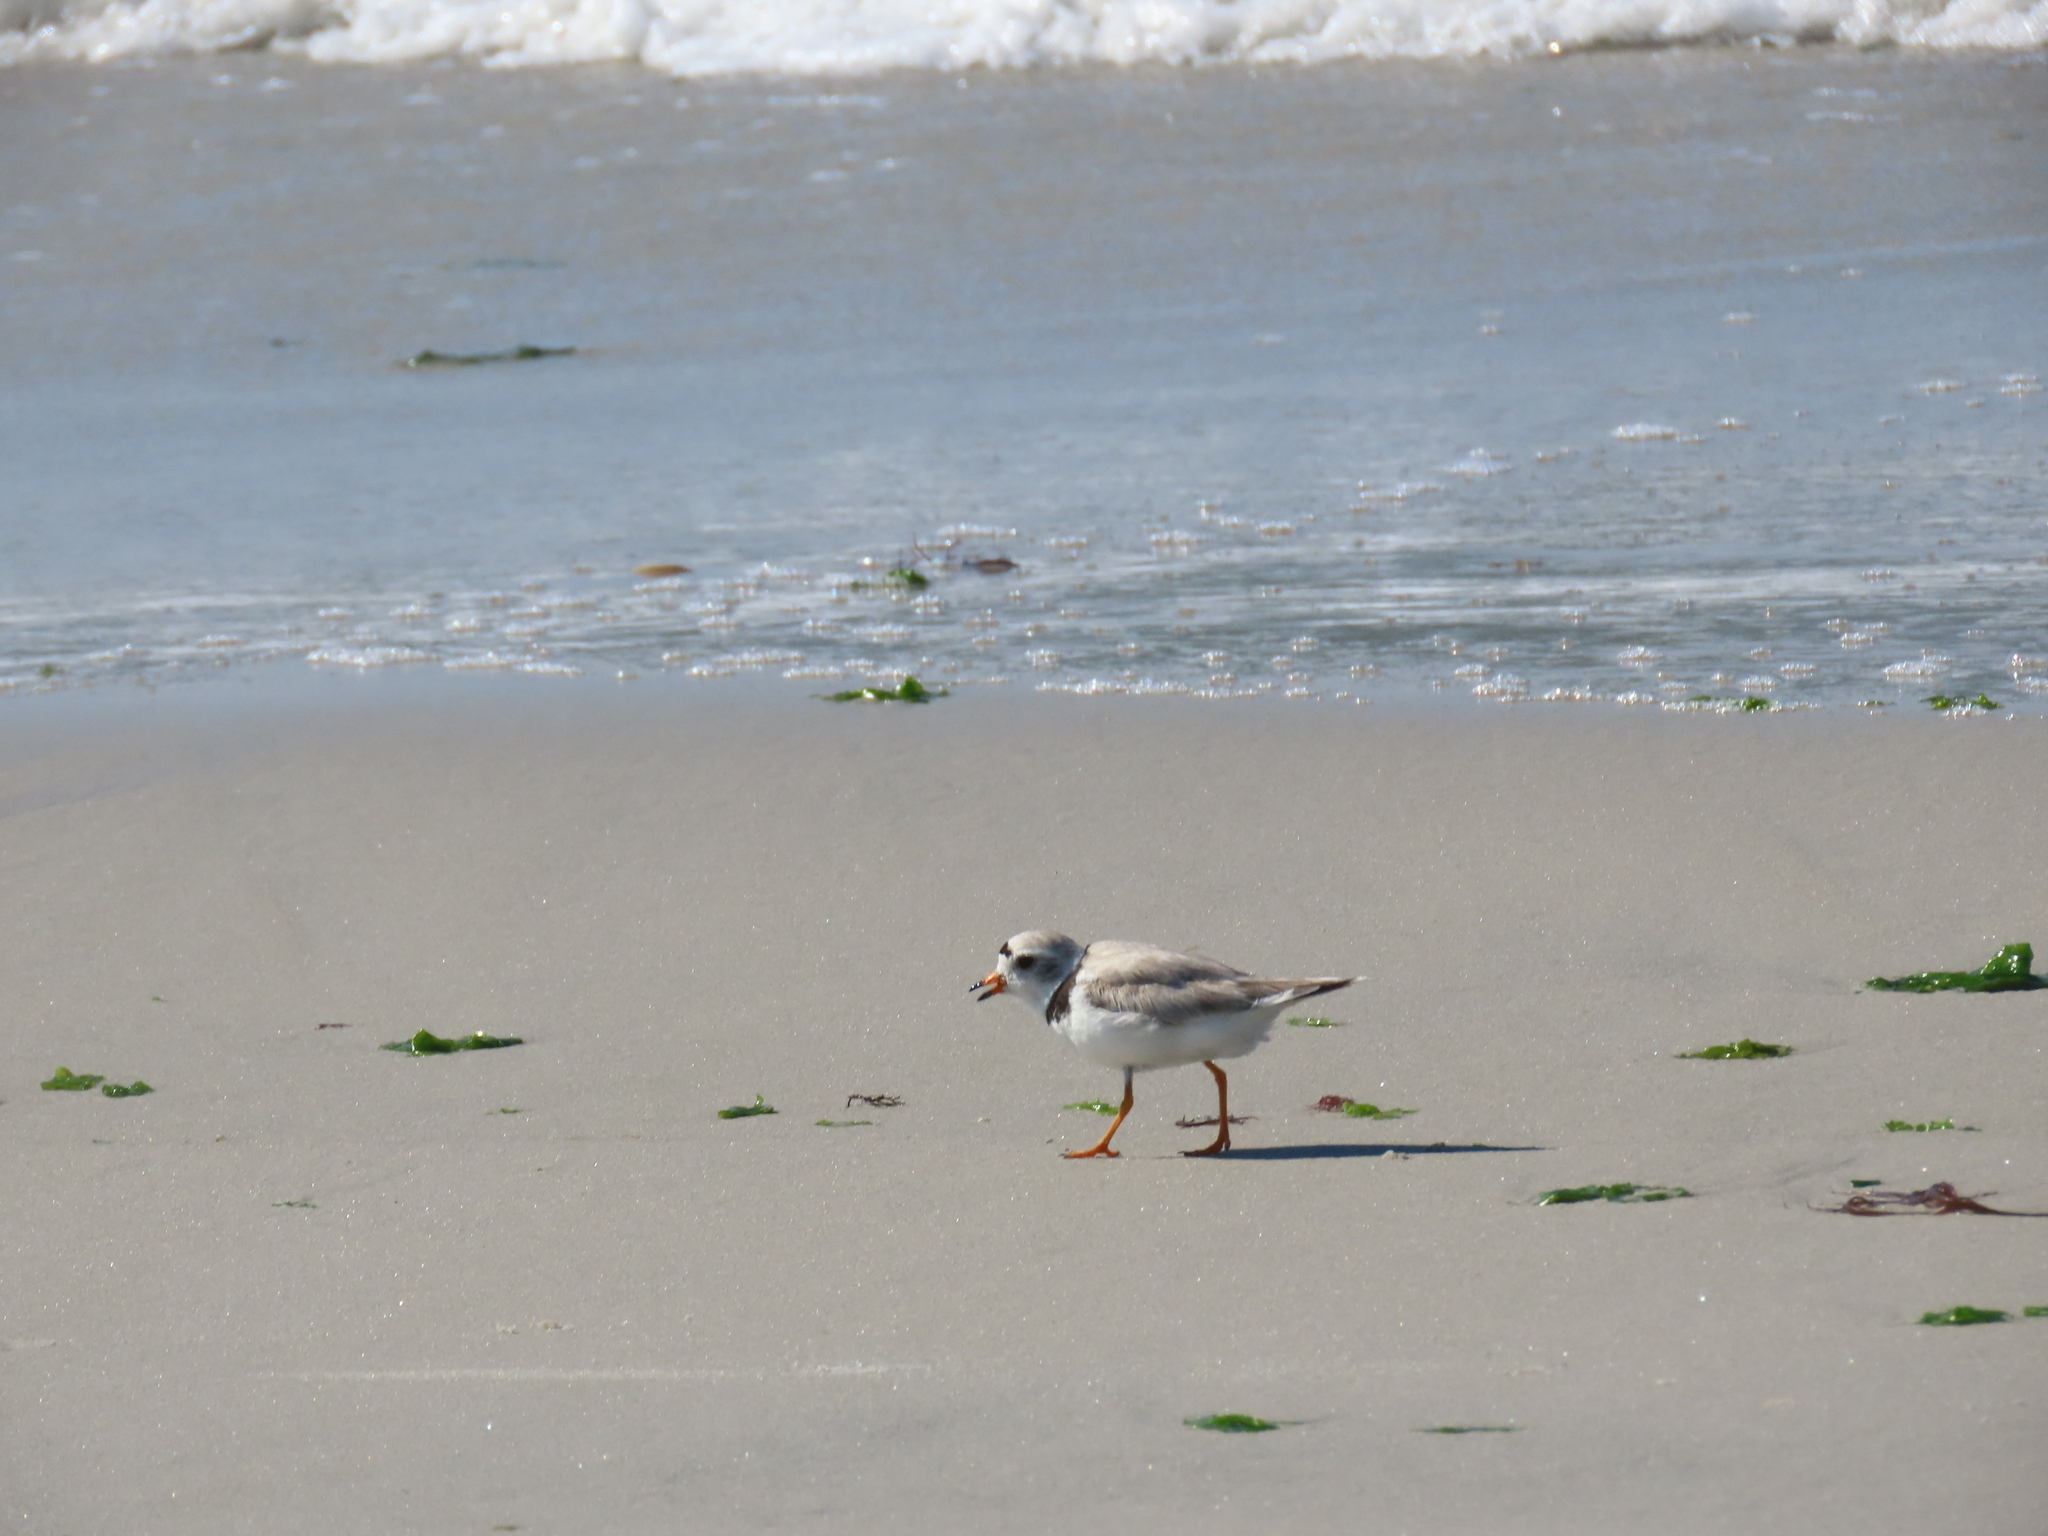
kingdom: Animalia
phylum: Chordata
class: Aves
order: Charadriiformes
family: Charadriidae
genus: Charadrius
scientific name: Charadrius melodus
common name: Piping plover
